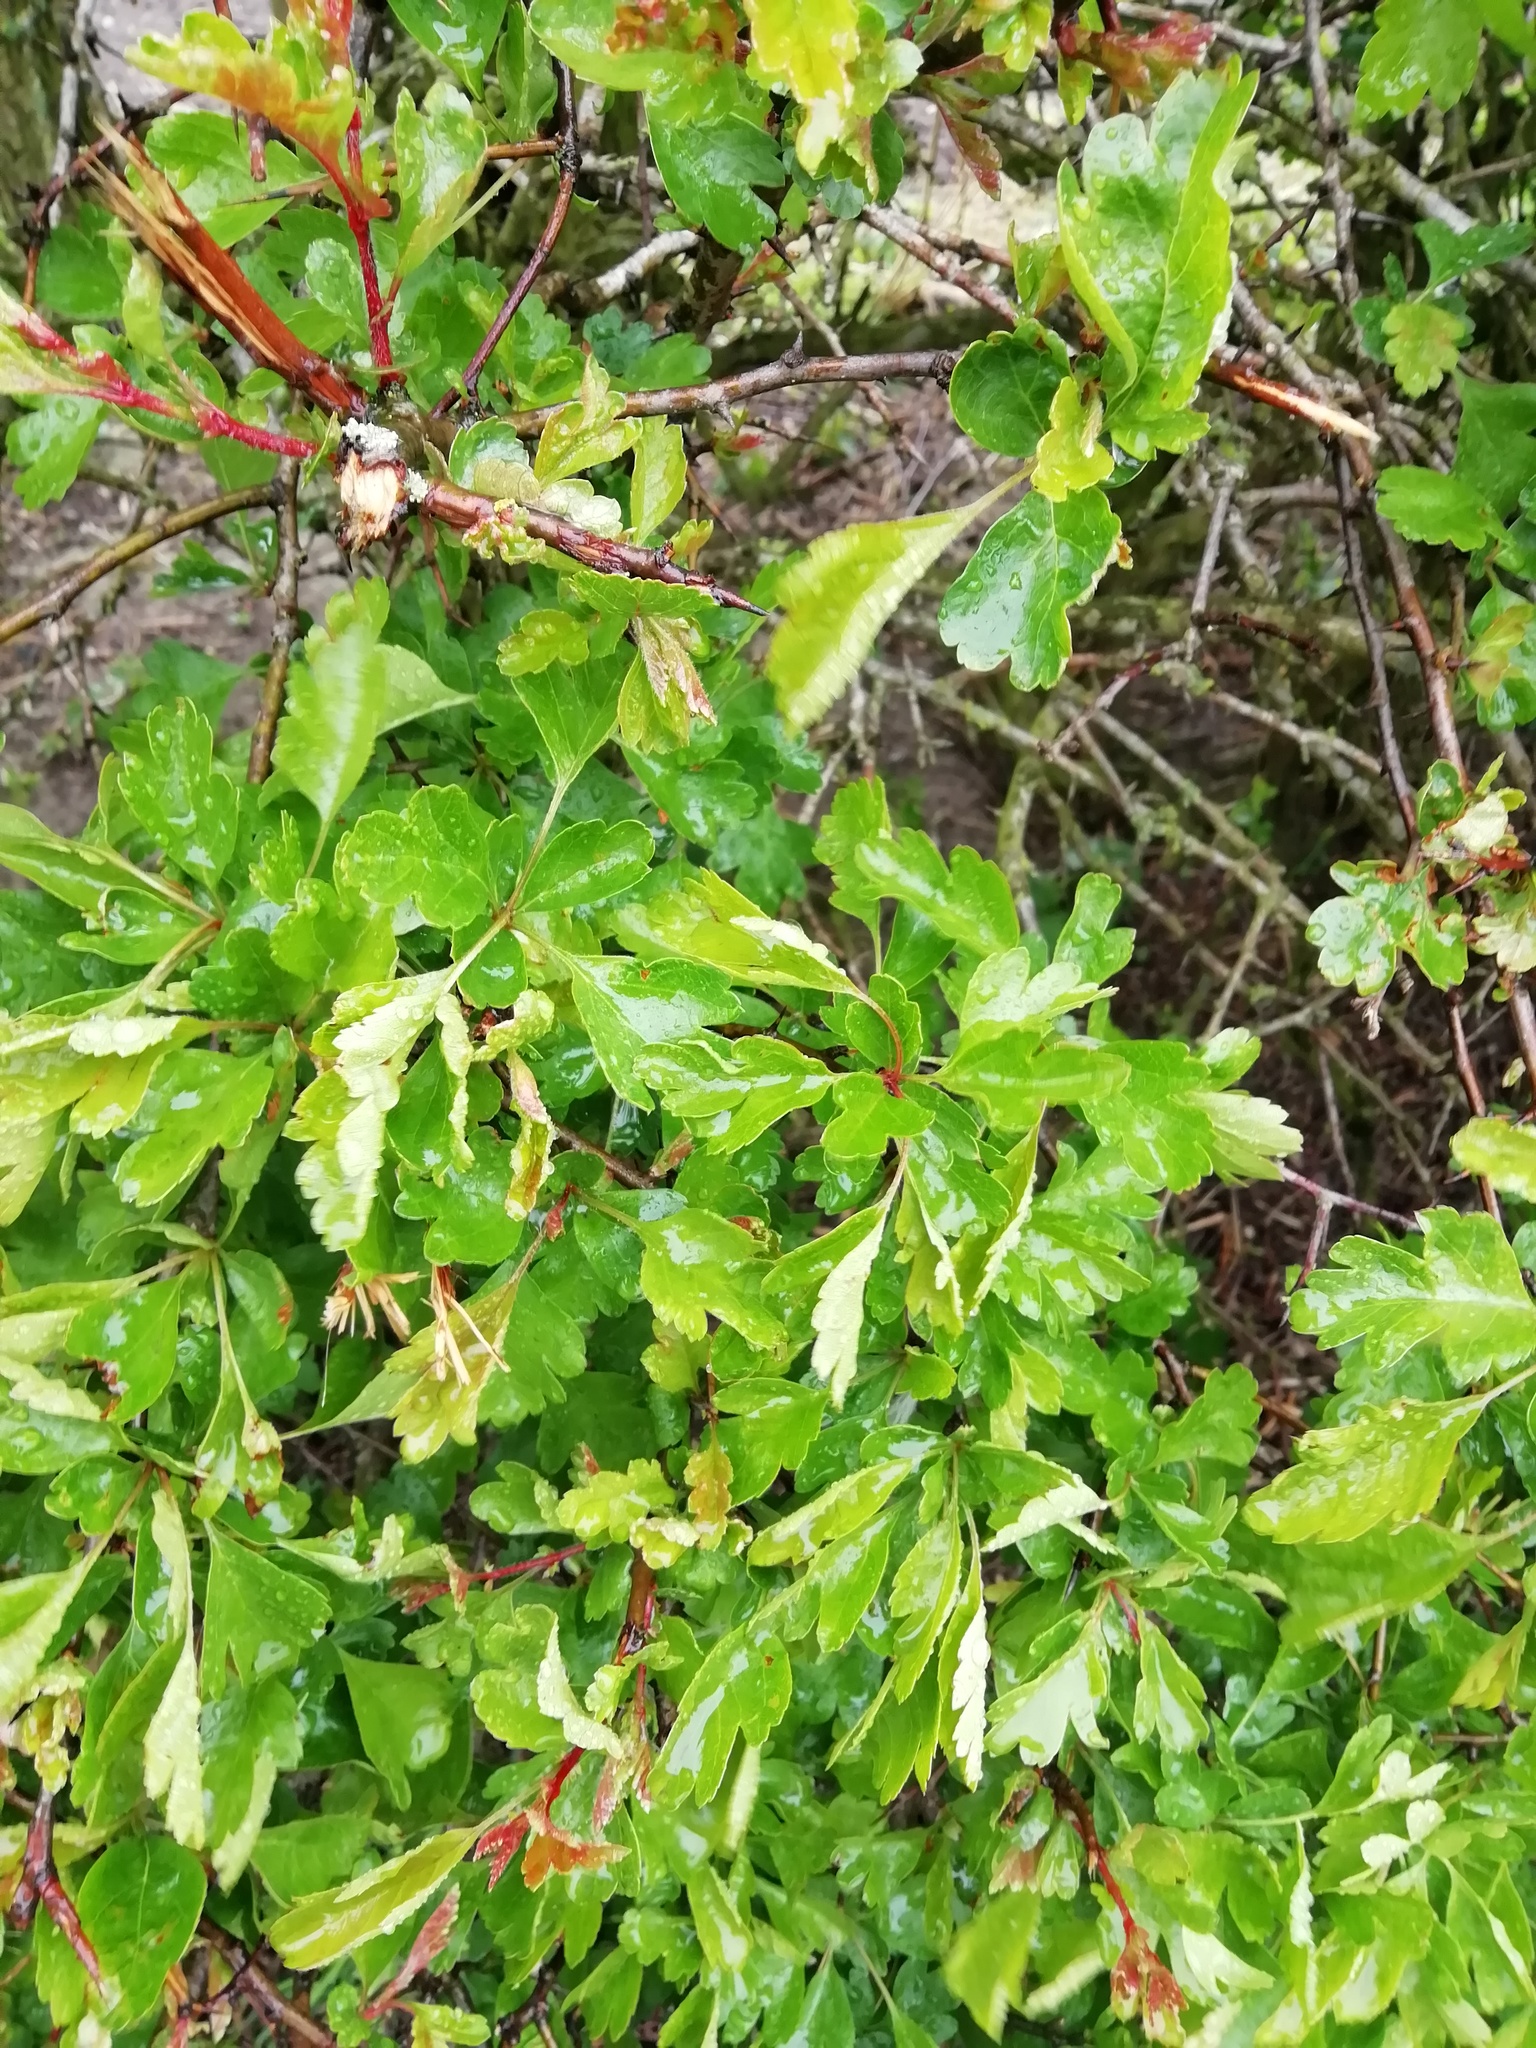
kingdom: Plantae
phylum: Tracheophyta
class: Magnoliopsida
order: Rosales
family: Rosaceae
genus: Crataegus
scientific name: Crataegus monogyna
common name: Hawthorn
